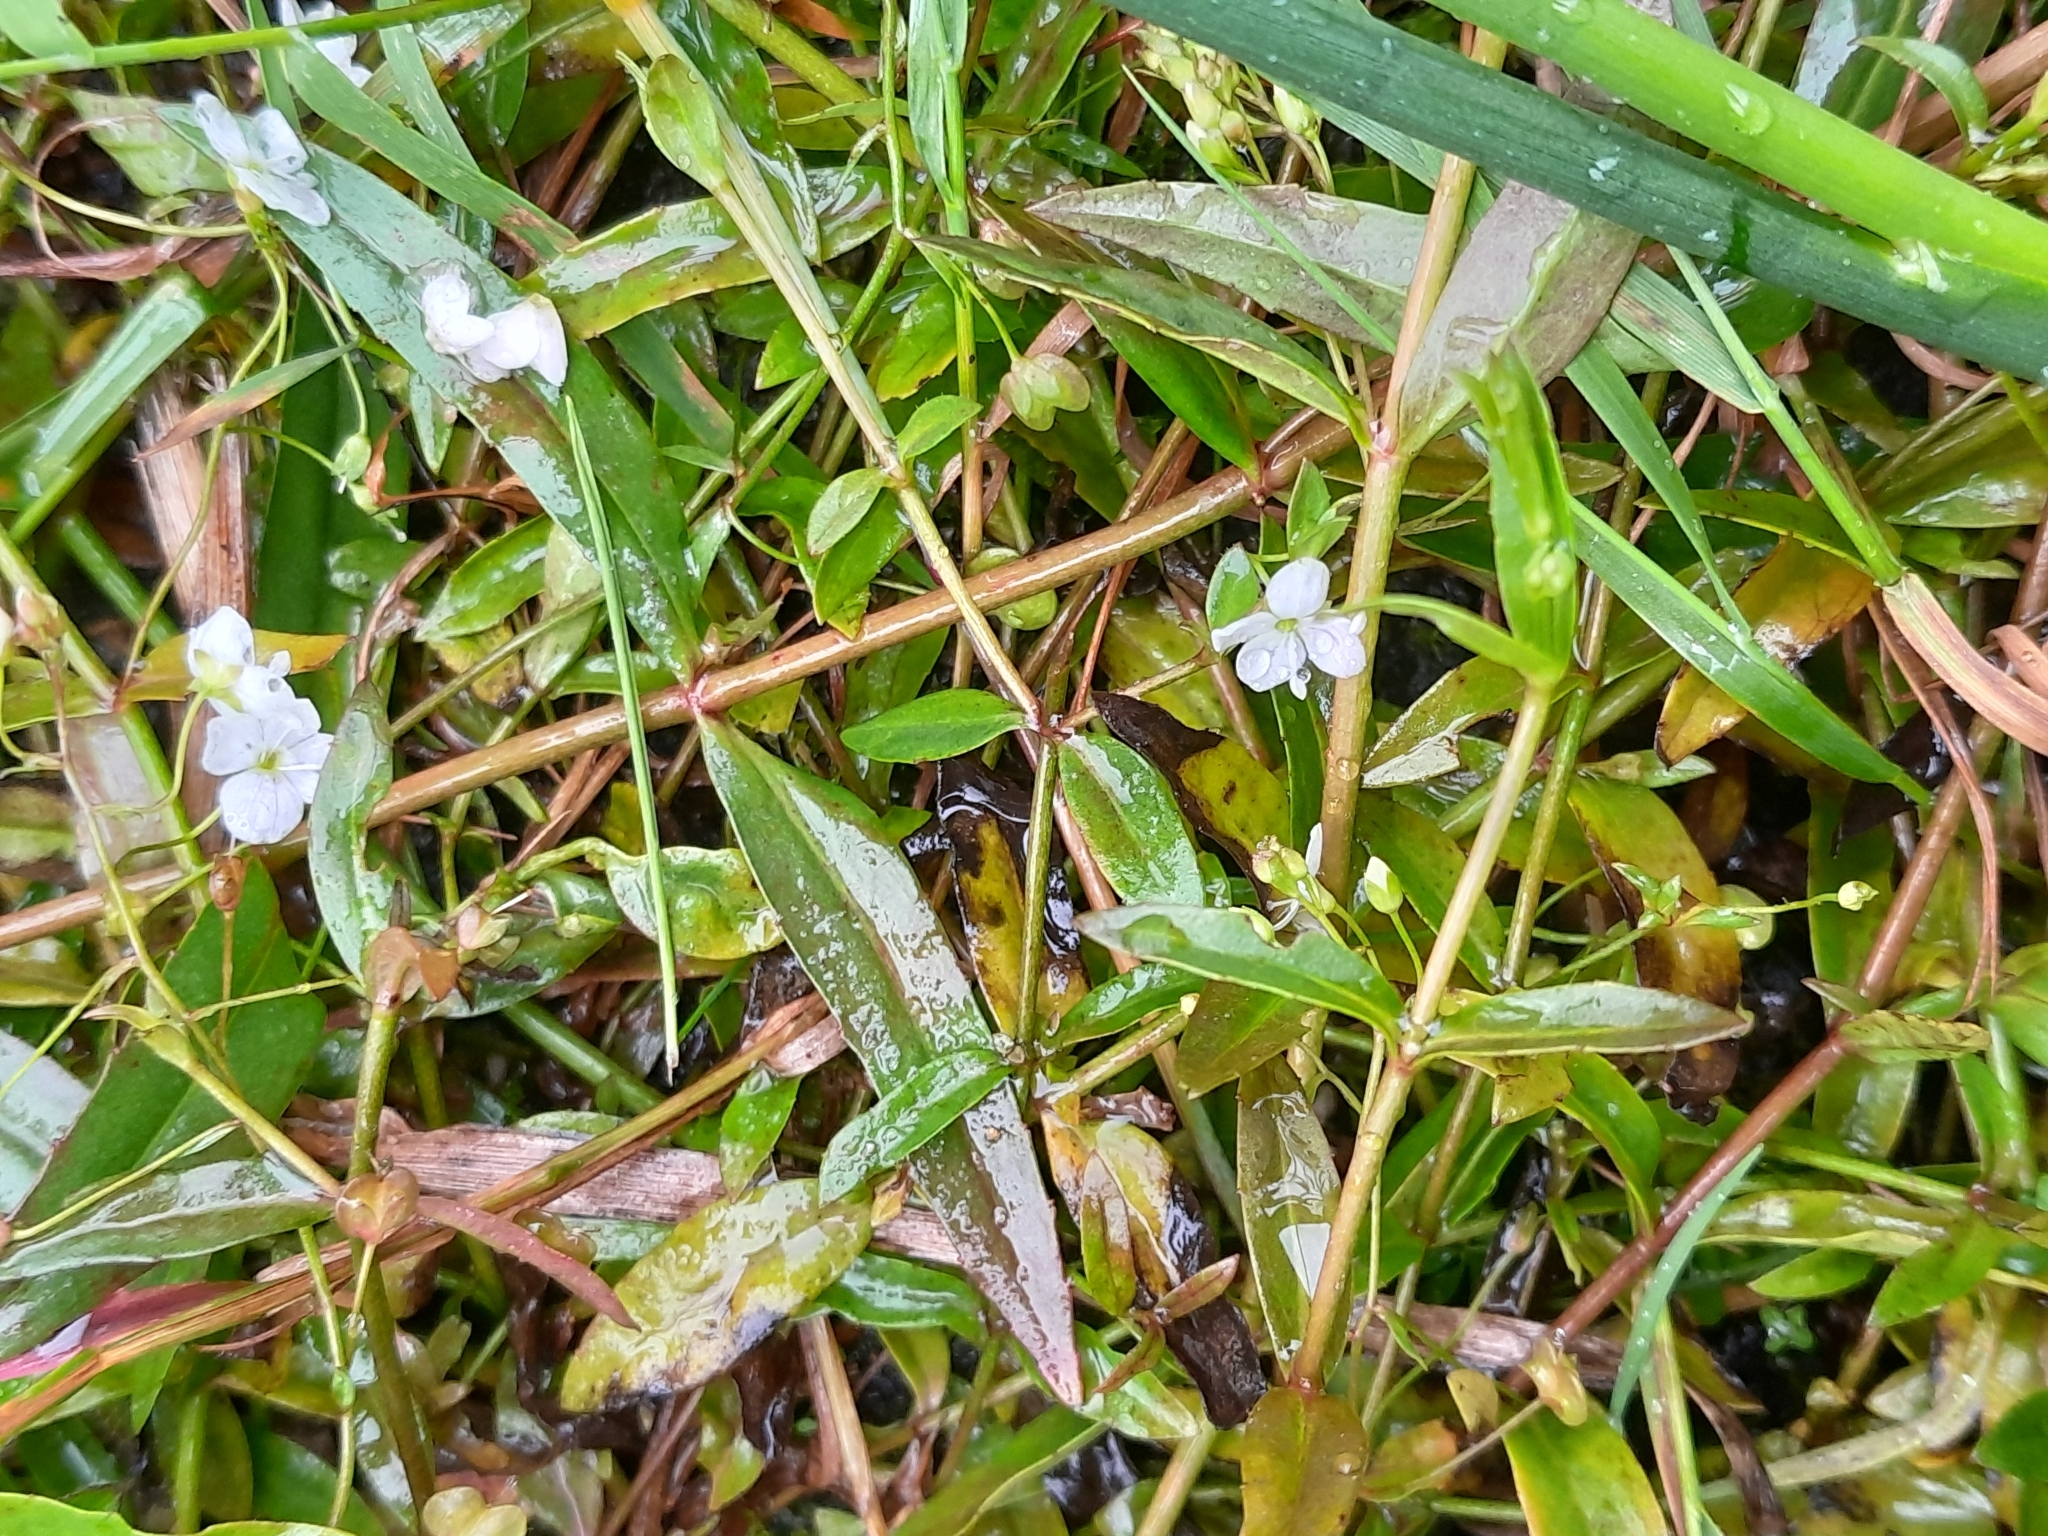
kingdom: Plantae
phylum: Tracheophyta
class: Magnoliopsida
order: Lamiales
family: Plantaginaceae
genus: Veronica
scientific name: Veronica scutellata
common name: Marsh speedwell
